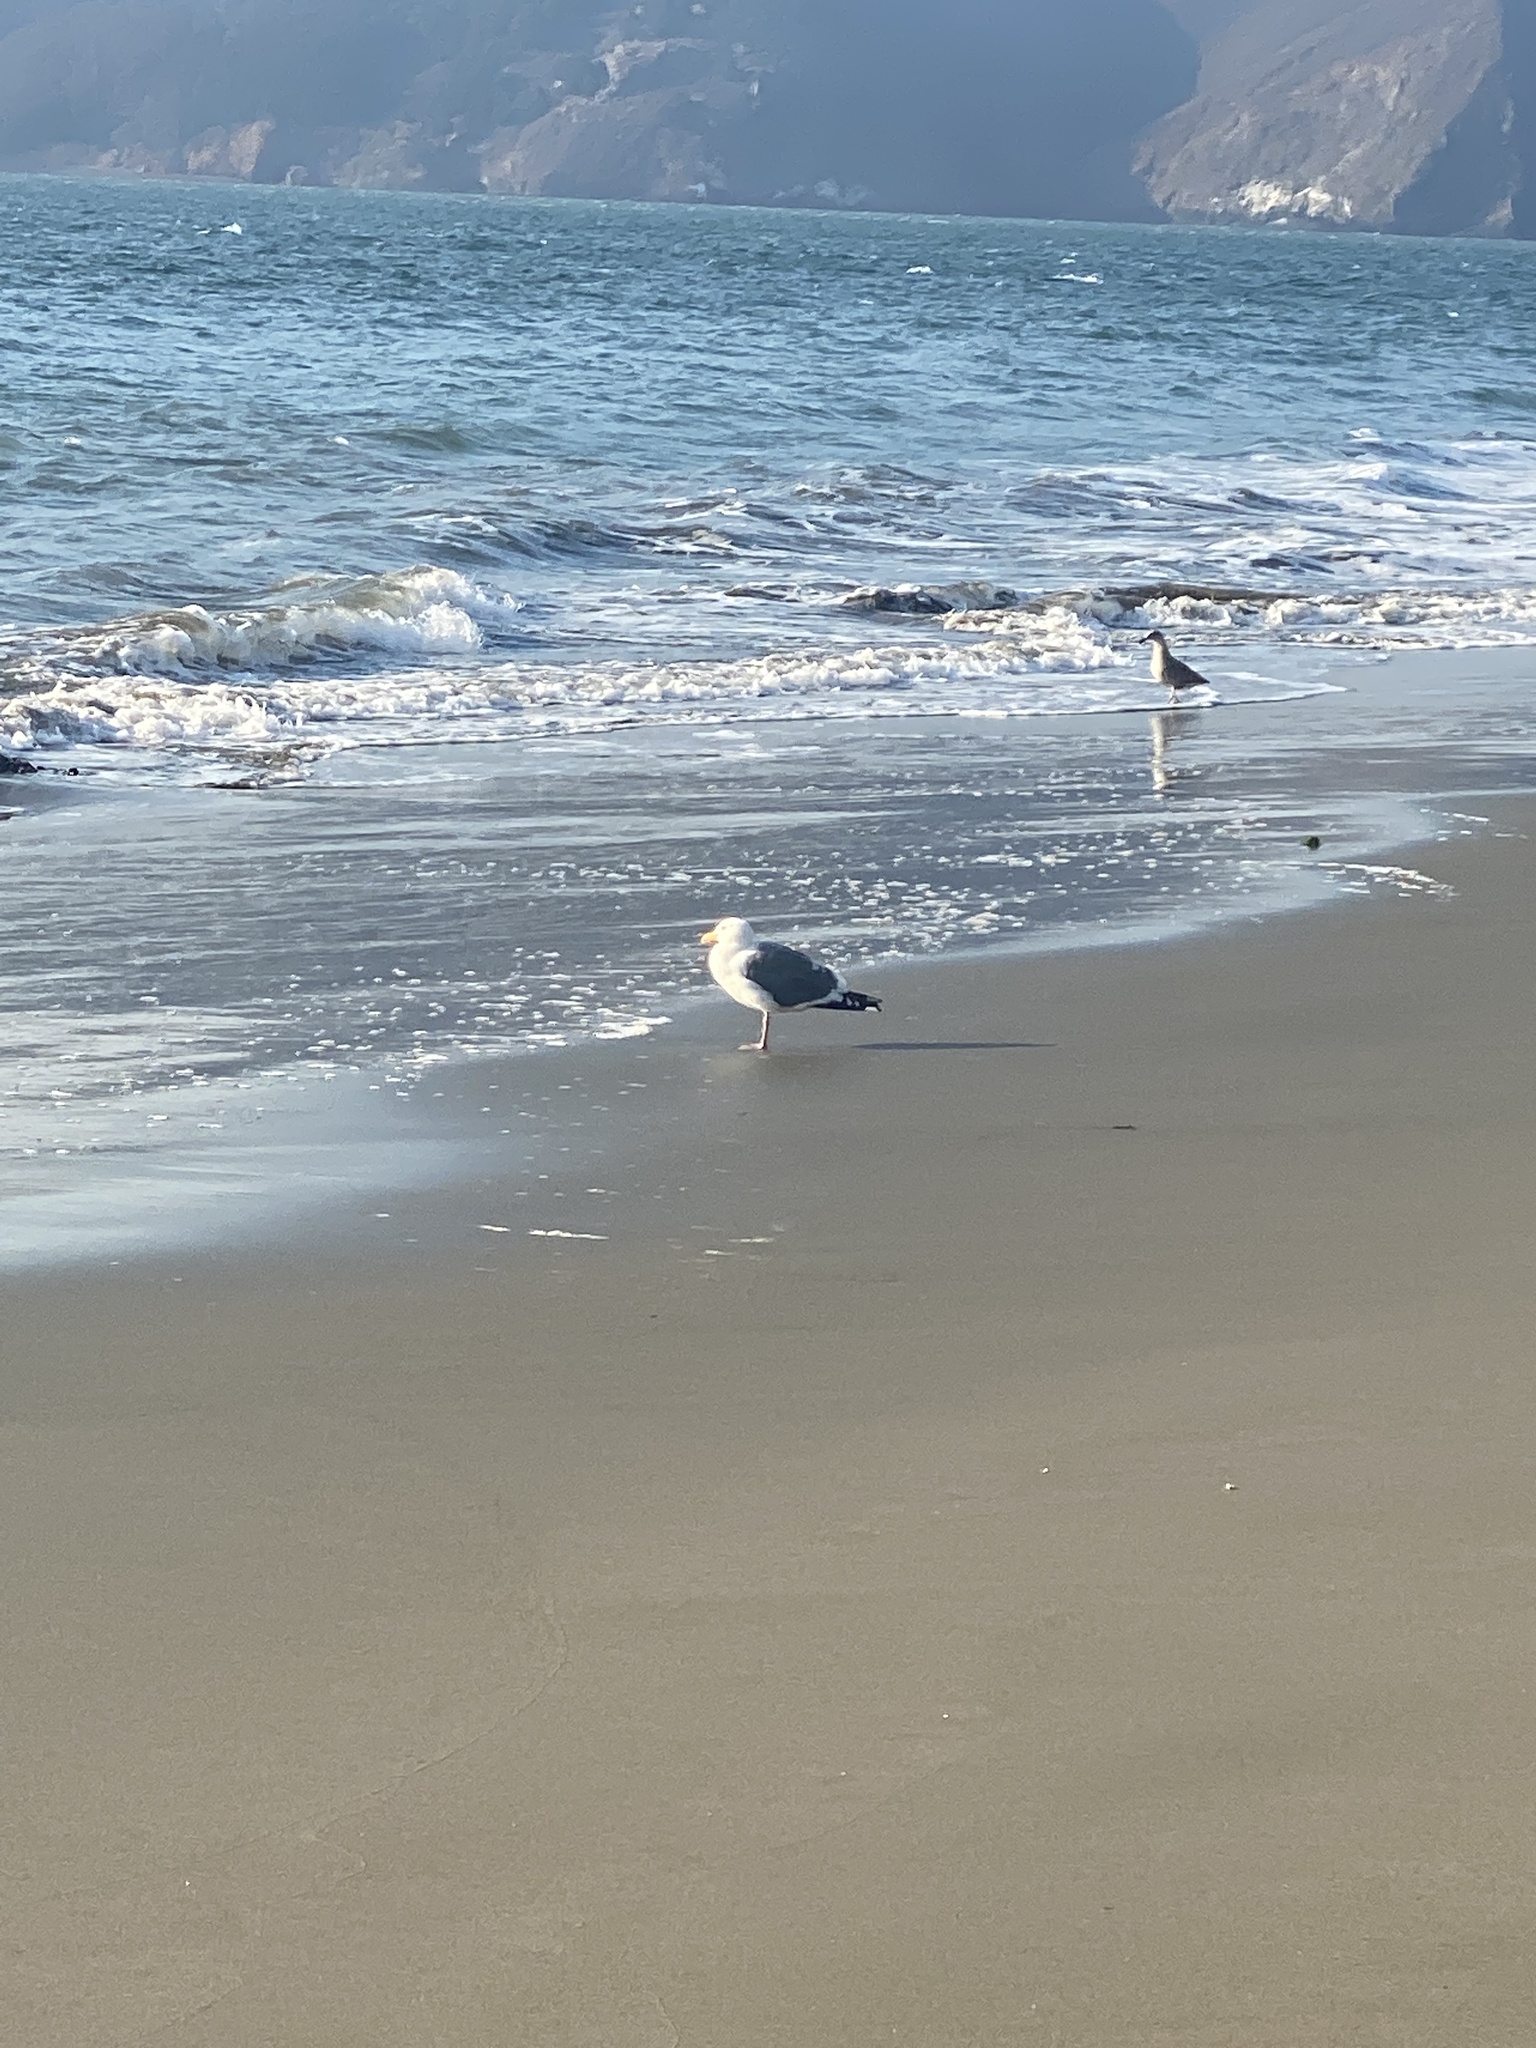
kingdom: Animalia
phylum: Chordata
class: Aves
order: Charadriiformes
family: Laridae
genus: Larus
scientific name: Larus occidentalis
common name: Western gull
